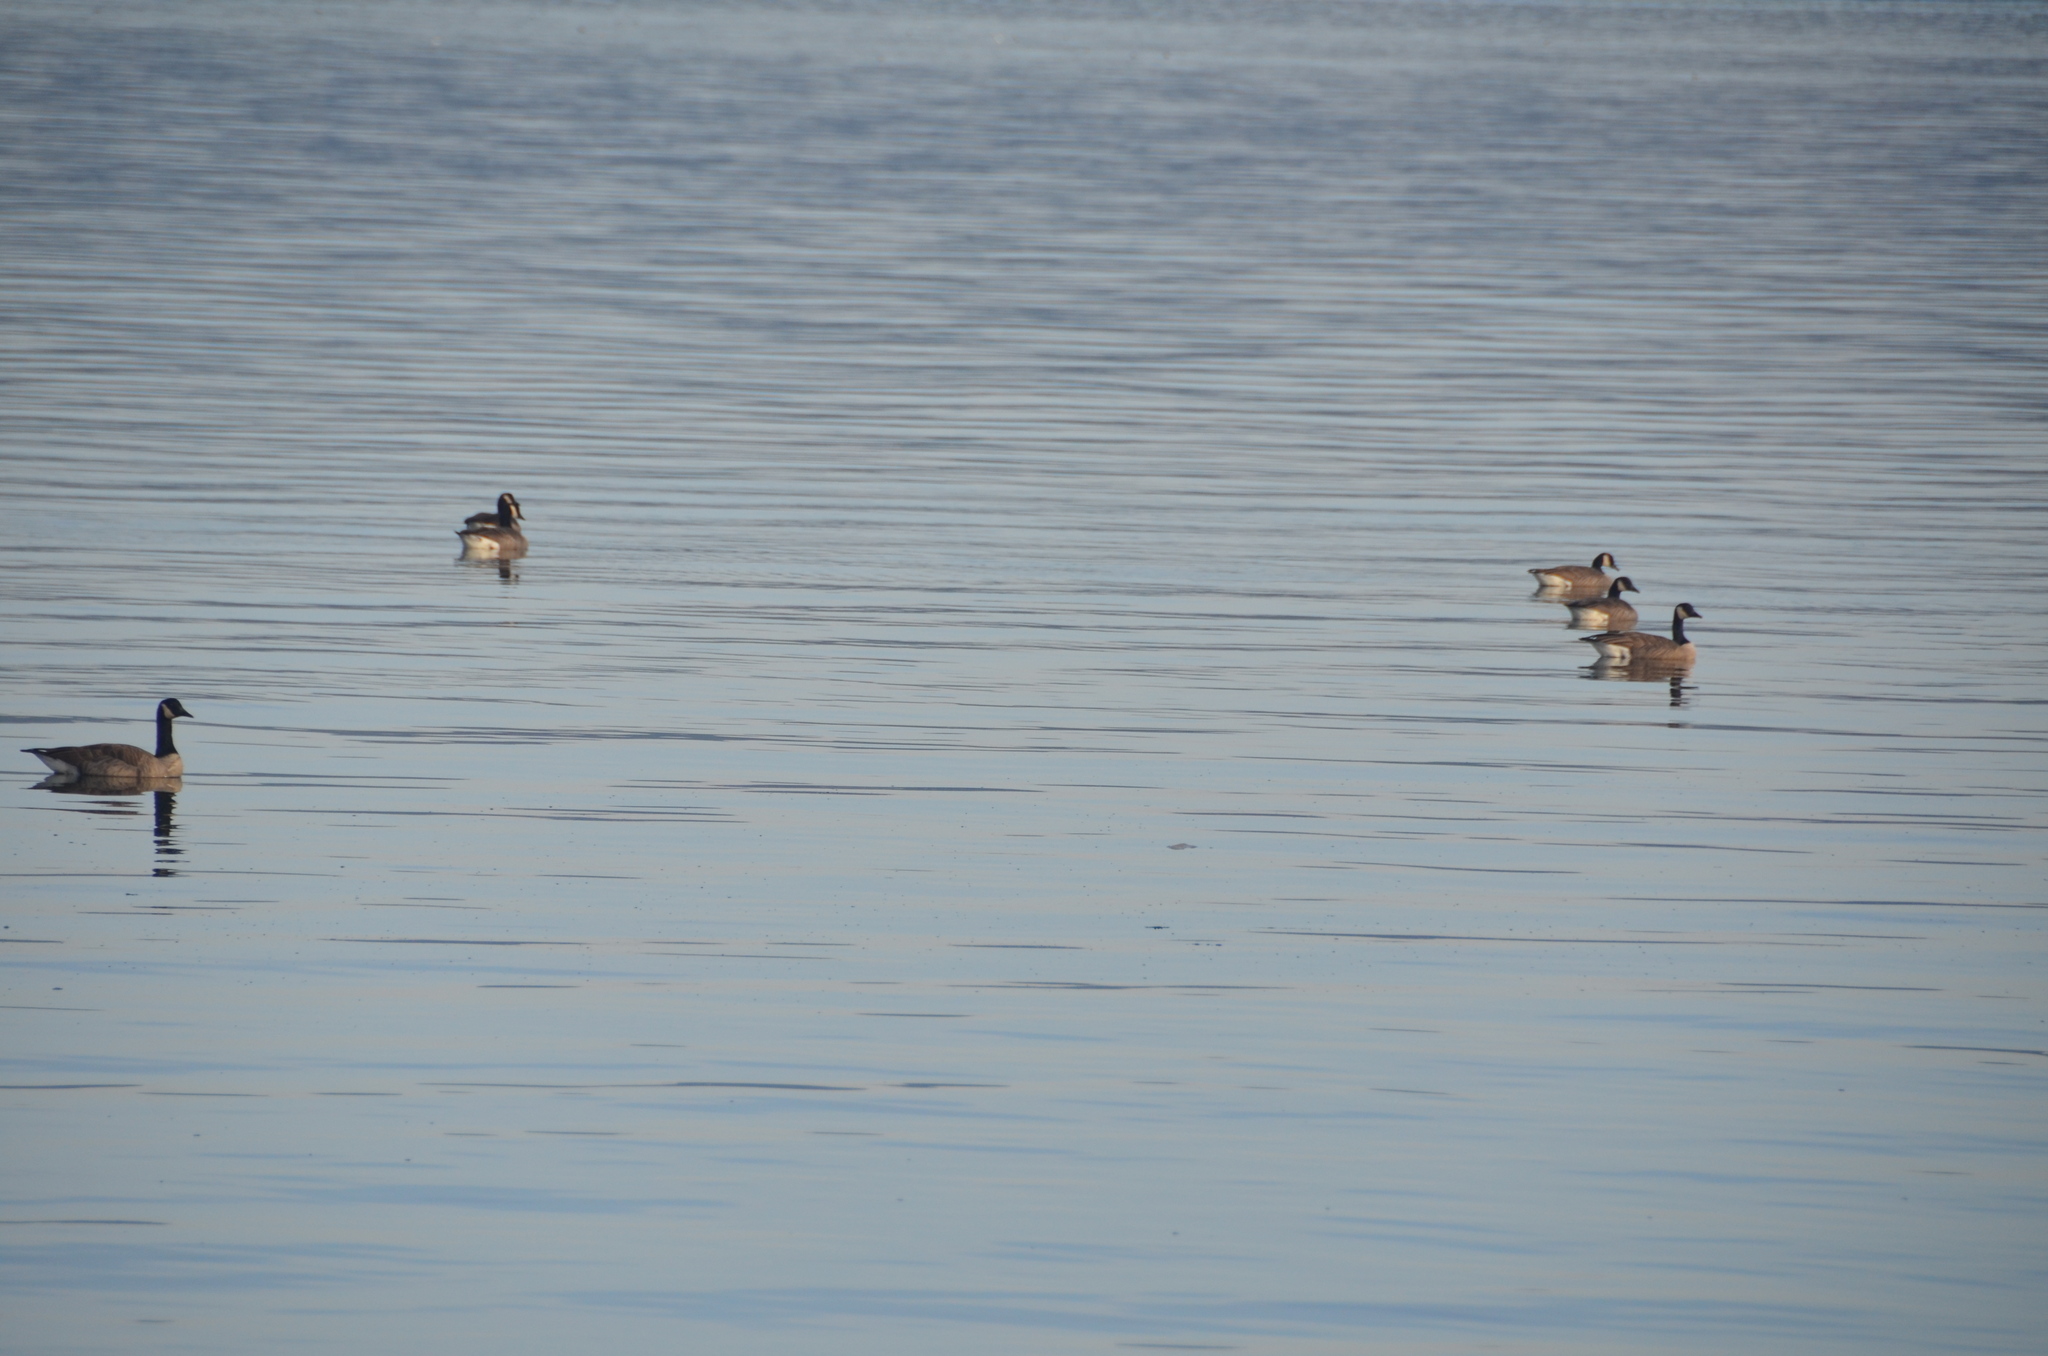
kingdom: Animalia
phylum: Chordata
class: Aves
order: Anseriformes
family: Anatidae
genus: Branta
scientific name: Branta hutchinsii
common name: Cackling goose
